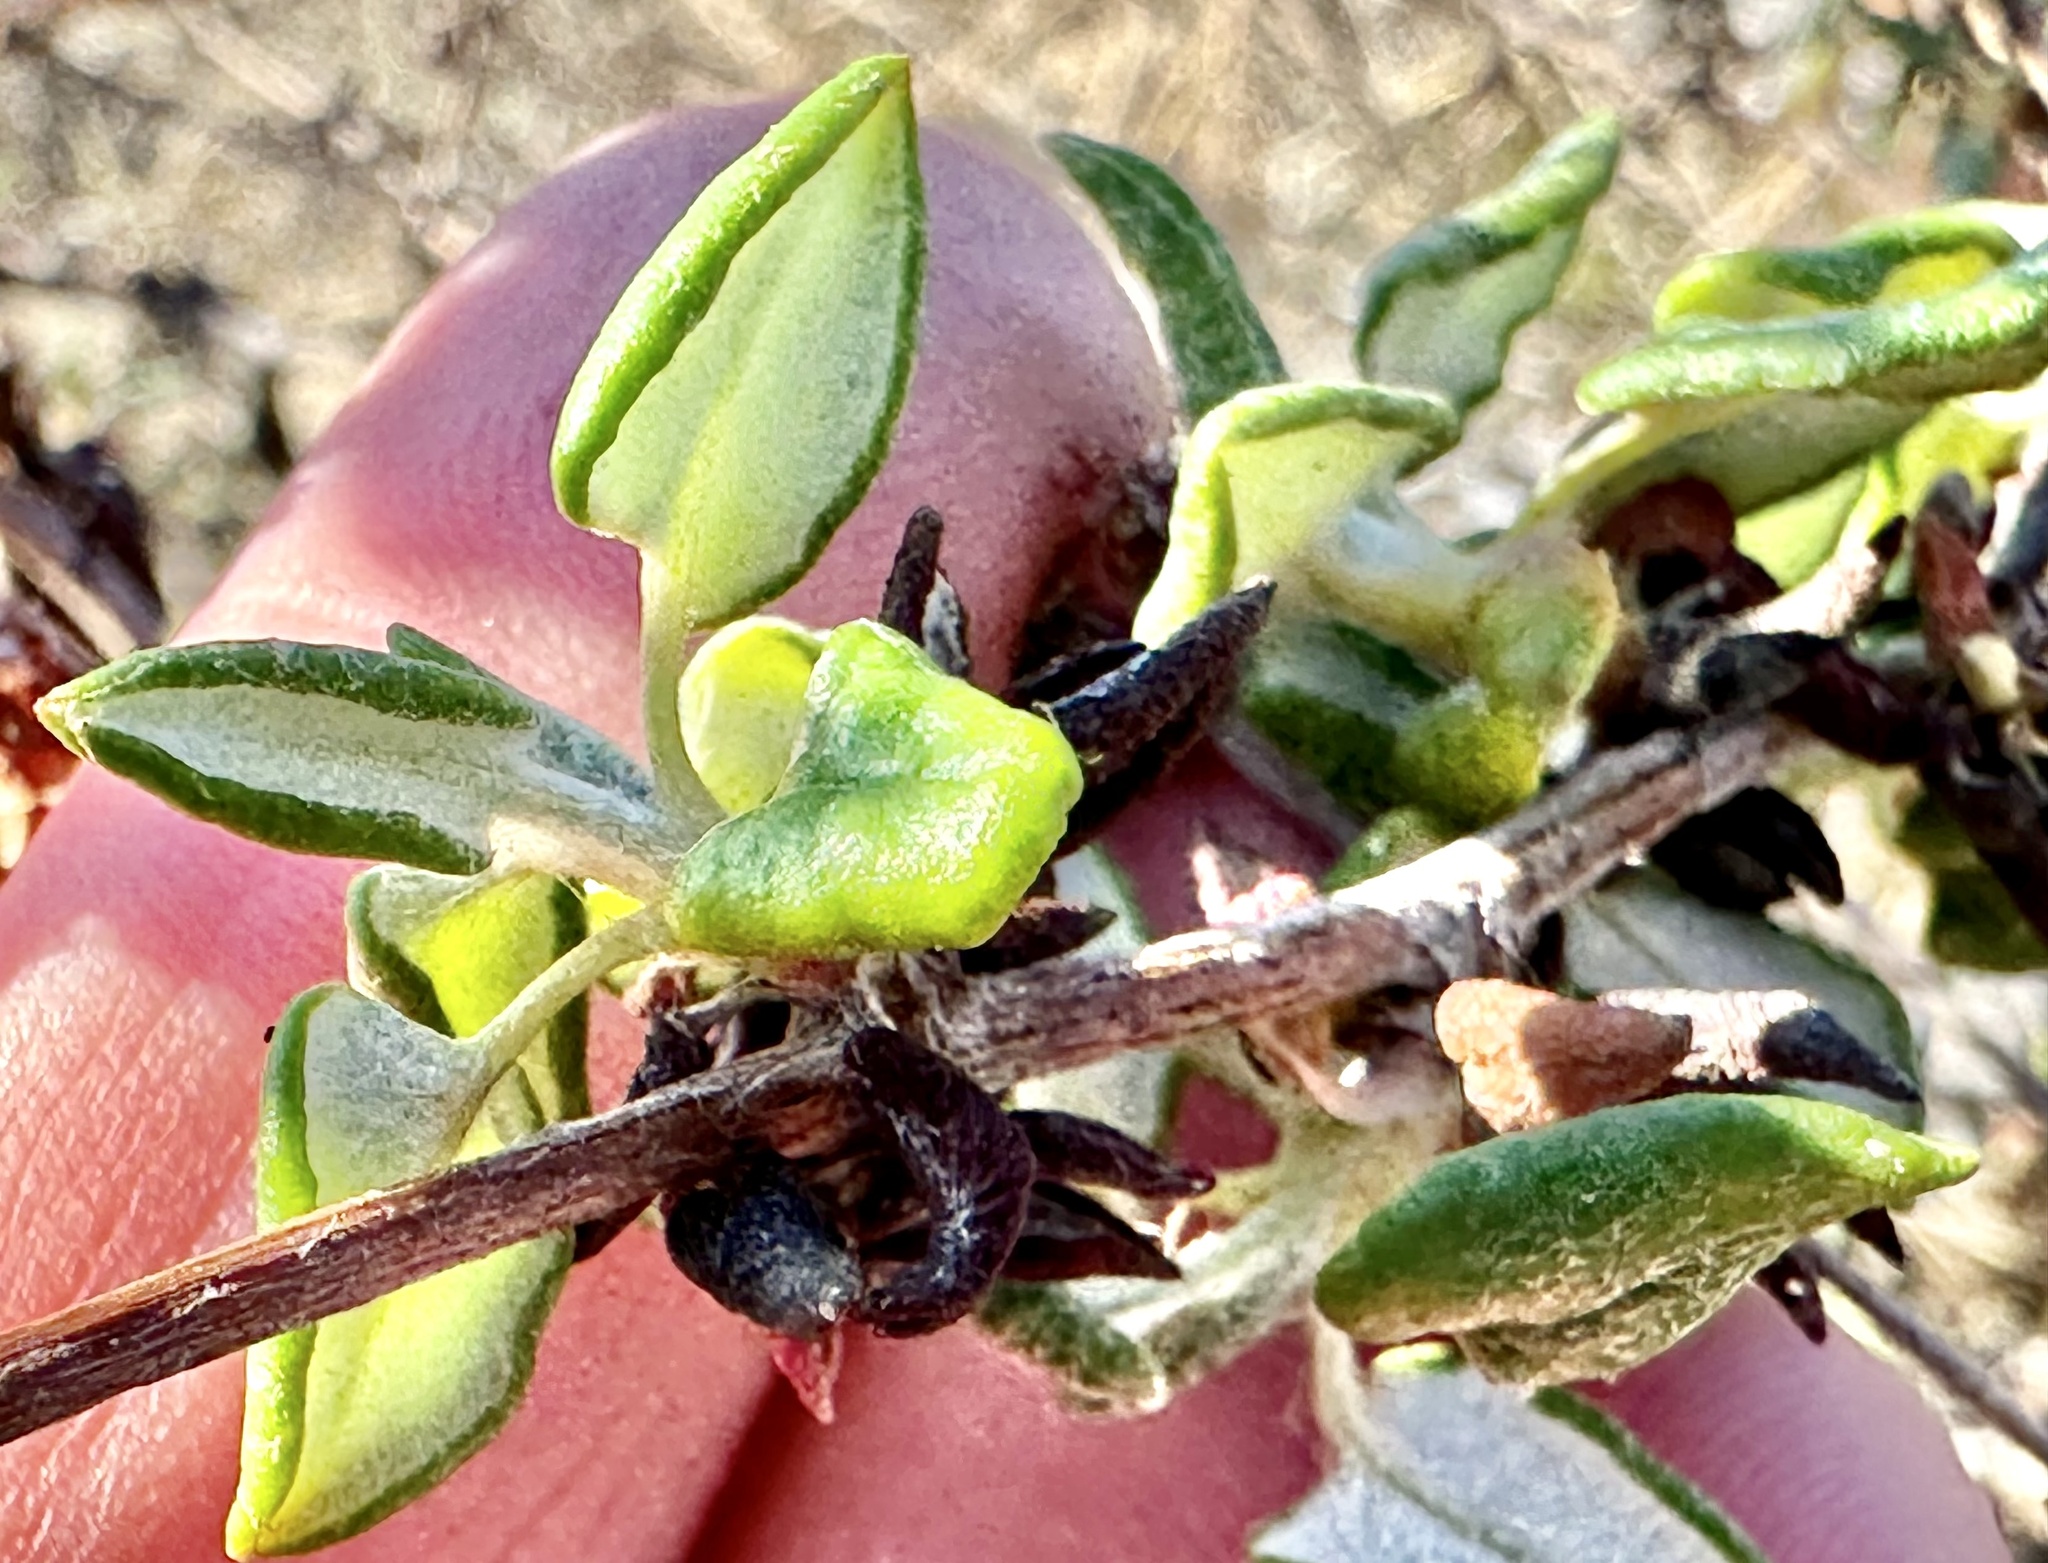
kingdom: Plantae
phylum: Tracheophyta
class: Magnoliopsida
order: Caryophyllales
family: Polygonaceae
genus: Eriogonum
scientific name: Eriogonum parvifolium
